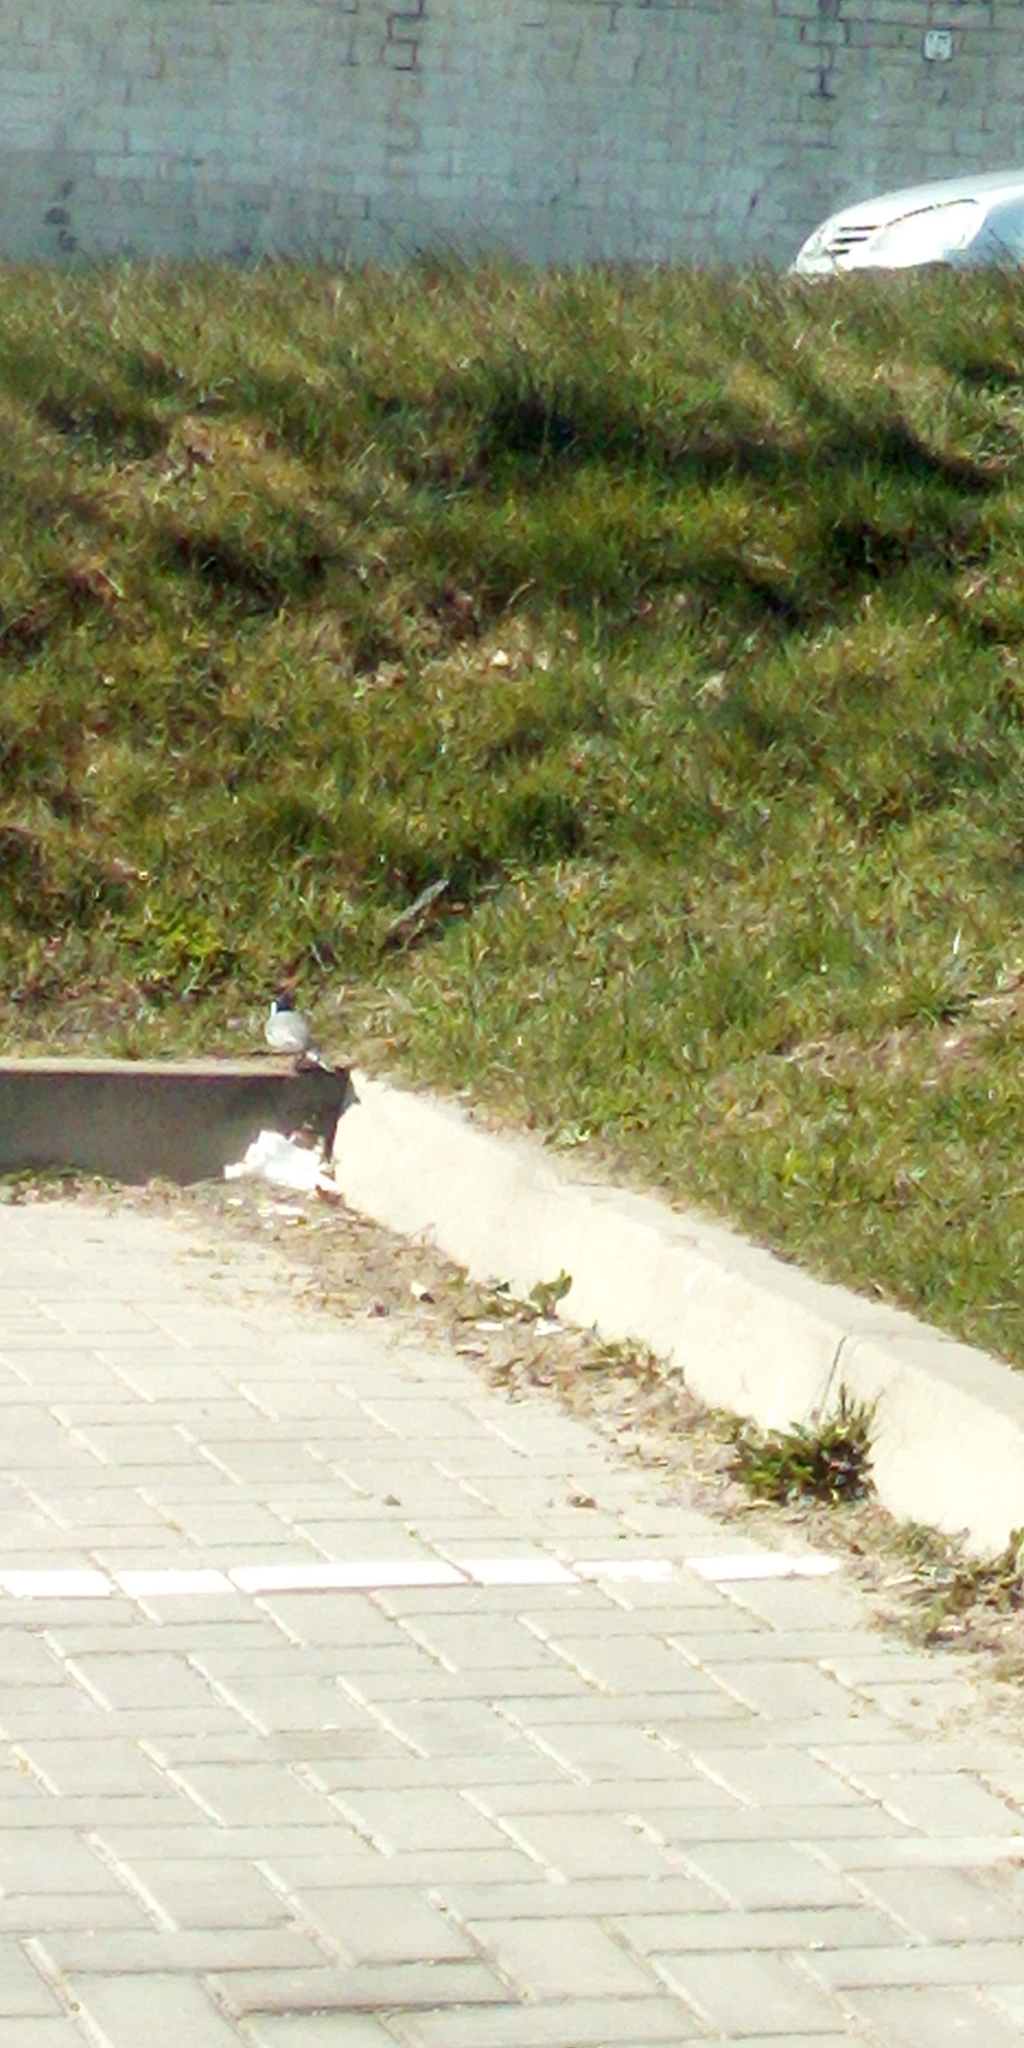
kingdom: Animalia
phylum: Chordata
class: Aves
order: Passeriformes
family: Motacillidae
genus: Motacilla
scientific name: Motacilla alba
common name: White wagtail
